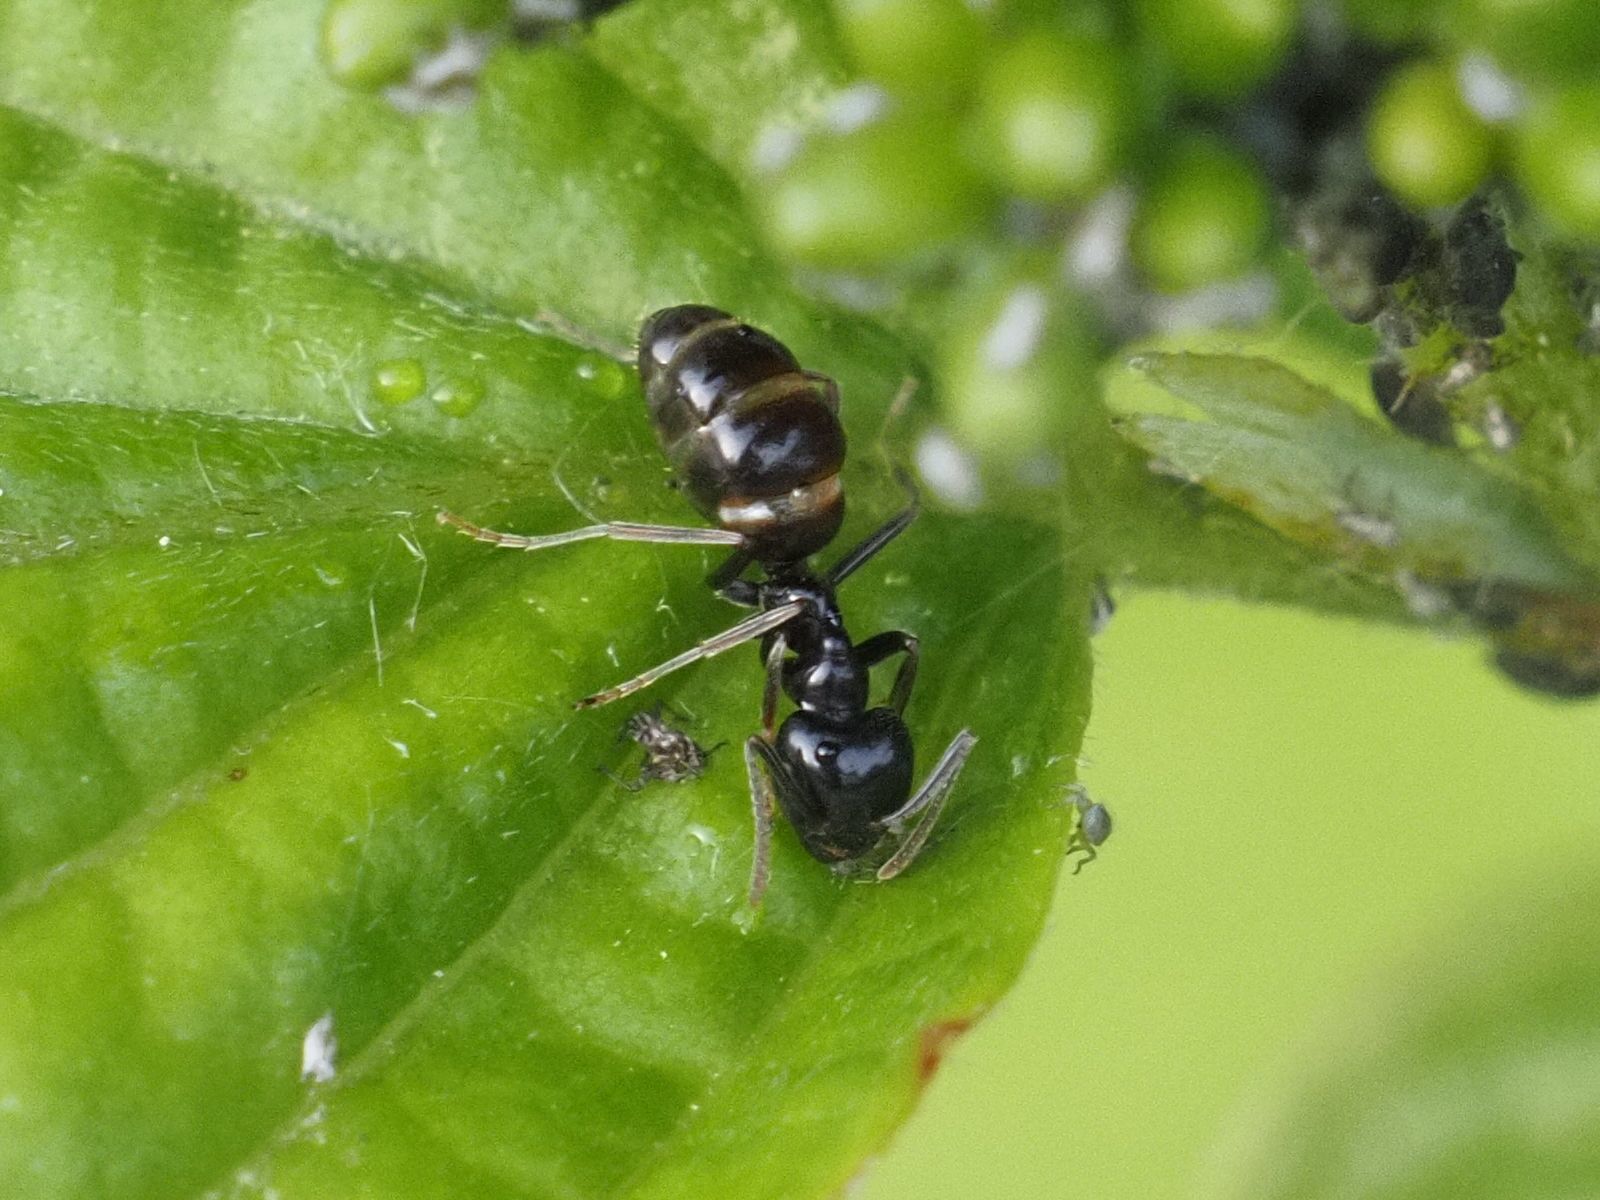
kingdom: Animalia
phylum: Arthropoda
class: Insecta
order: Hymenoptera
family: Formicidae
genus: Lasius
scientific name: Lasius fuliginosus
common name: Jet ant
